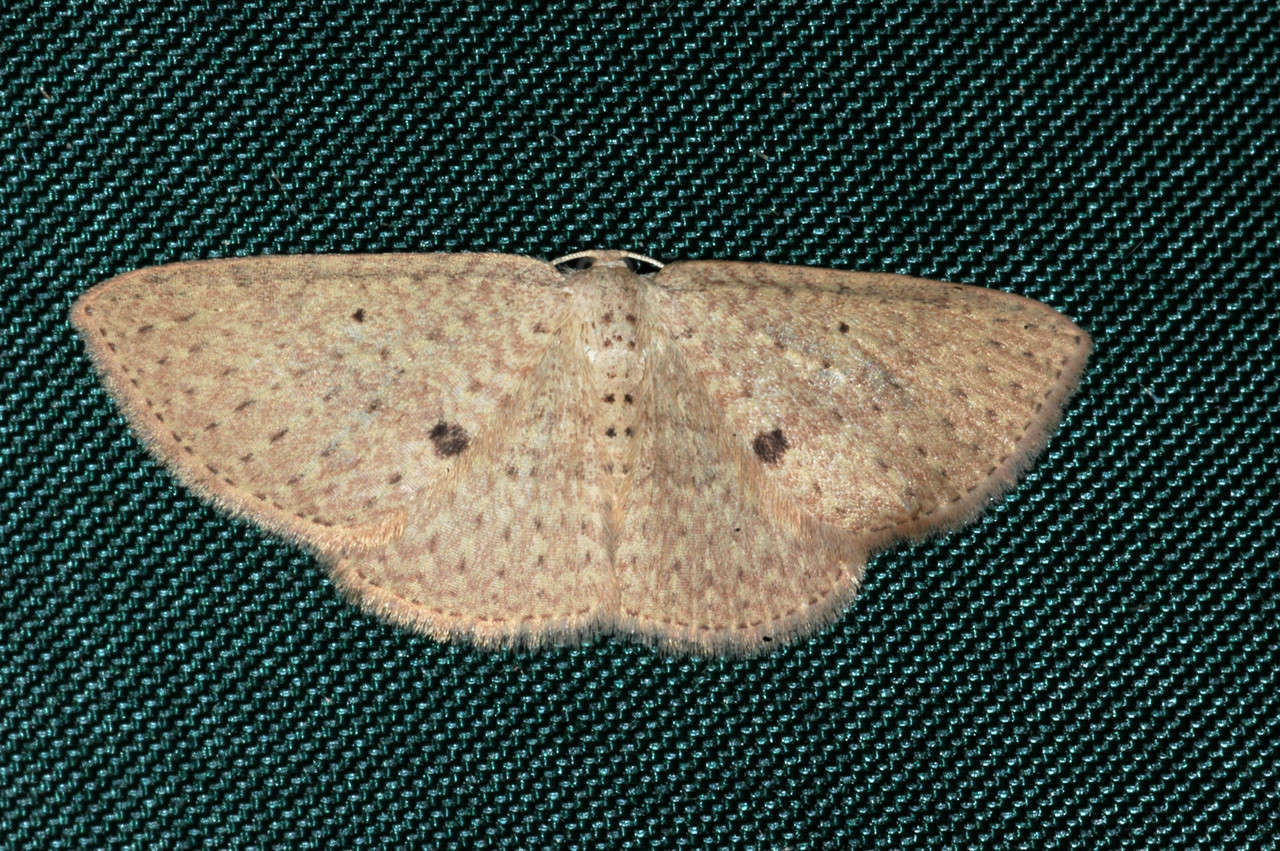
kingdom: Animalia
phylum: Arthropoda
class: Insecta
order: Lepidoptera
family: Geometridae
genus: Poecilasthena
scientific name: Poecilasthena anthodes
